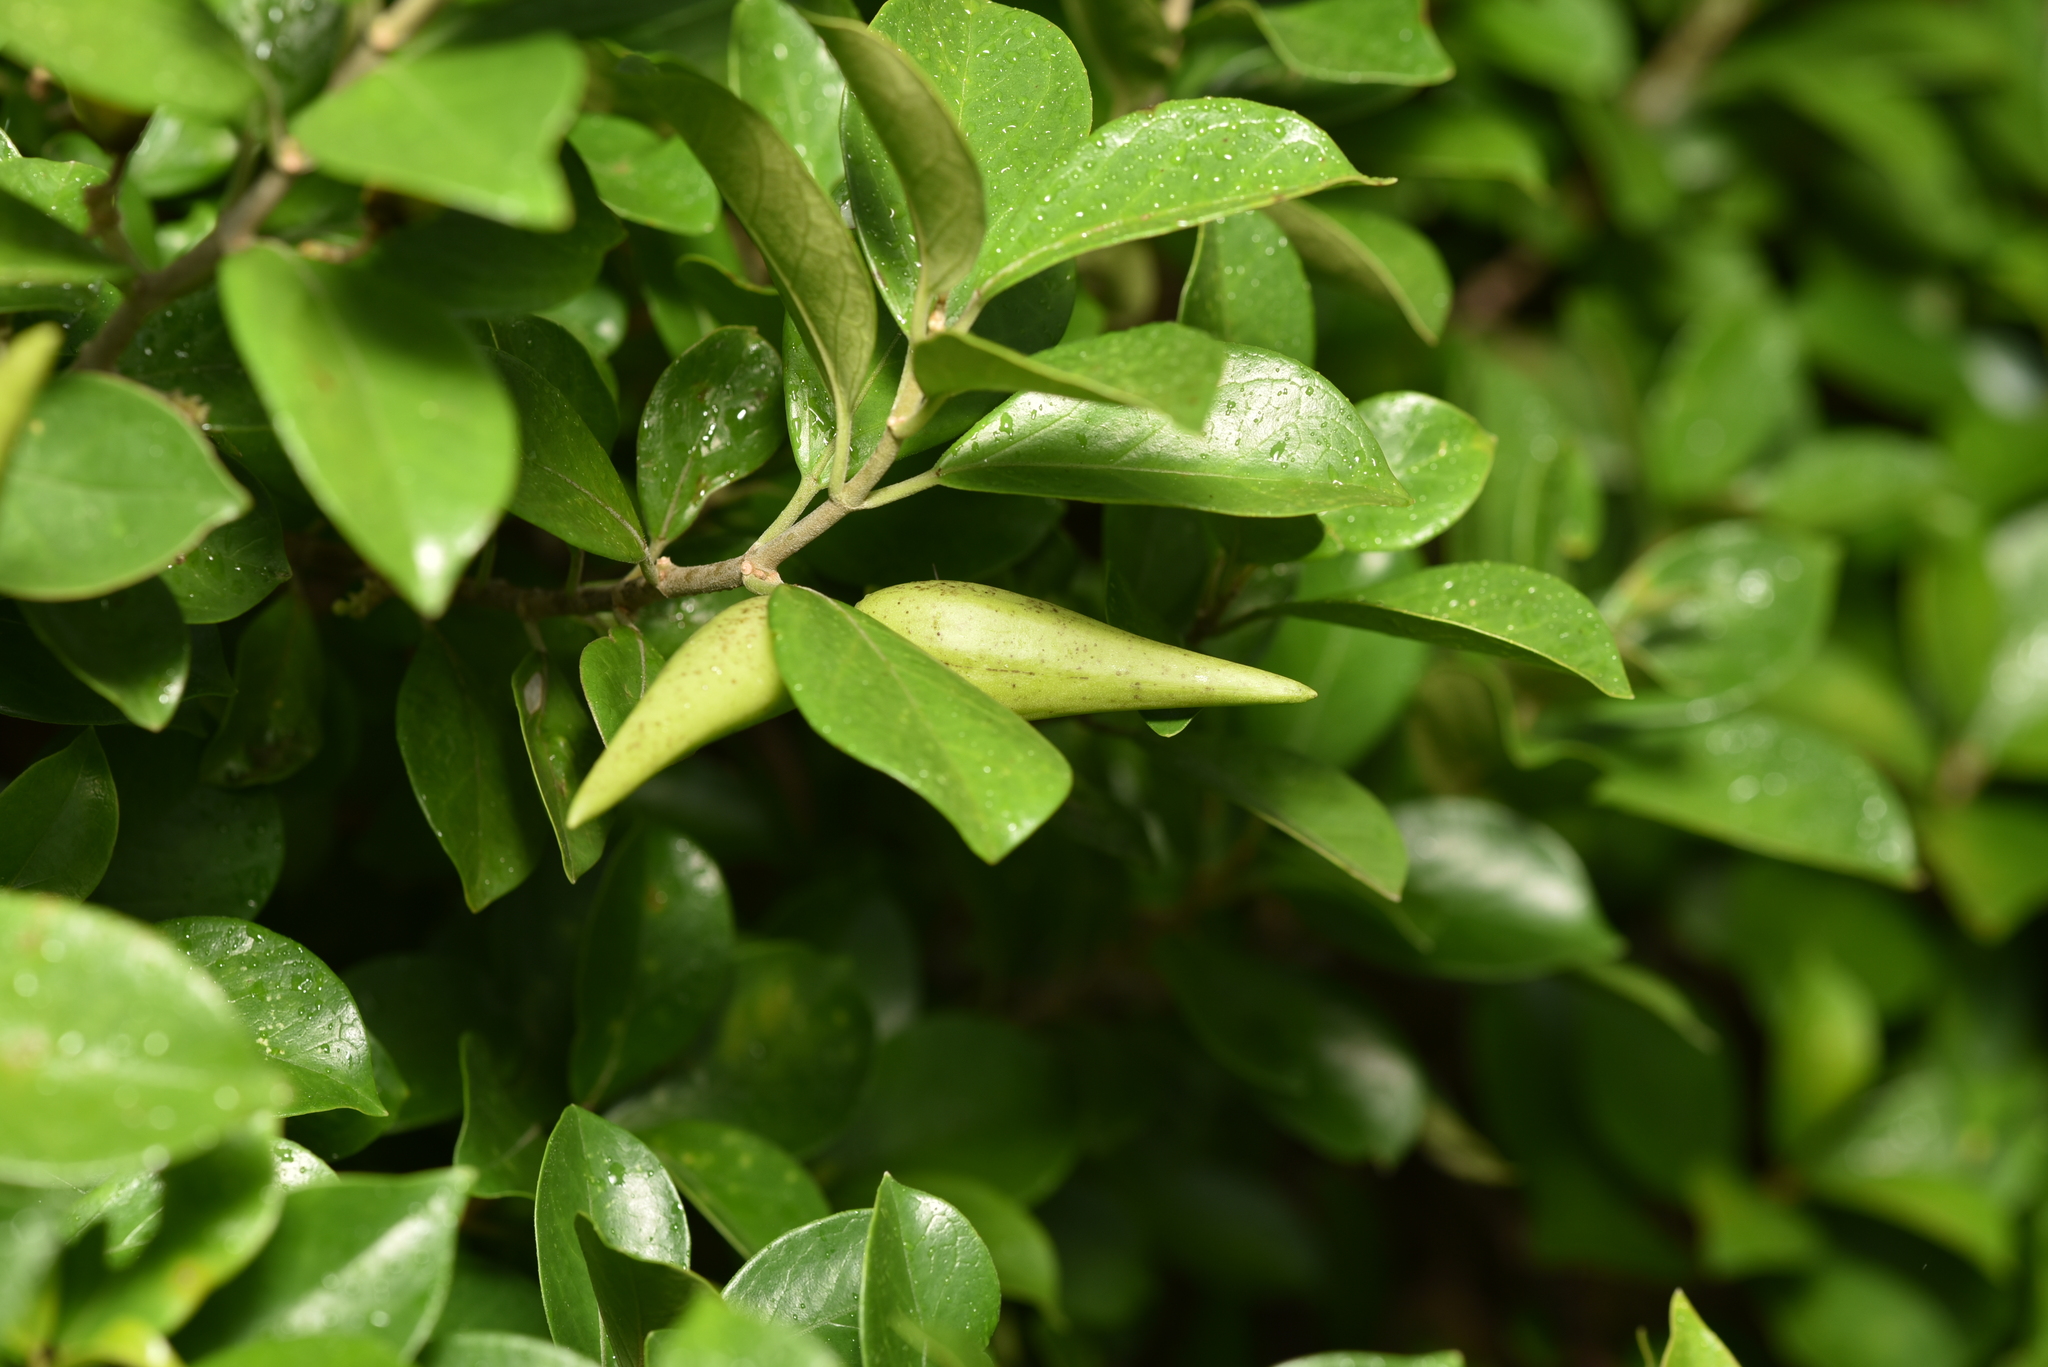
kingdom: Plantae
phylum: Tracheophyta
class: Magnoliopsida
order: Gentianales
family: Apocynaceae
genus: Gymnema
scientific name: Gymnema sylvestre
